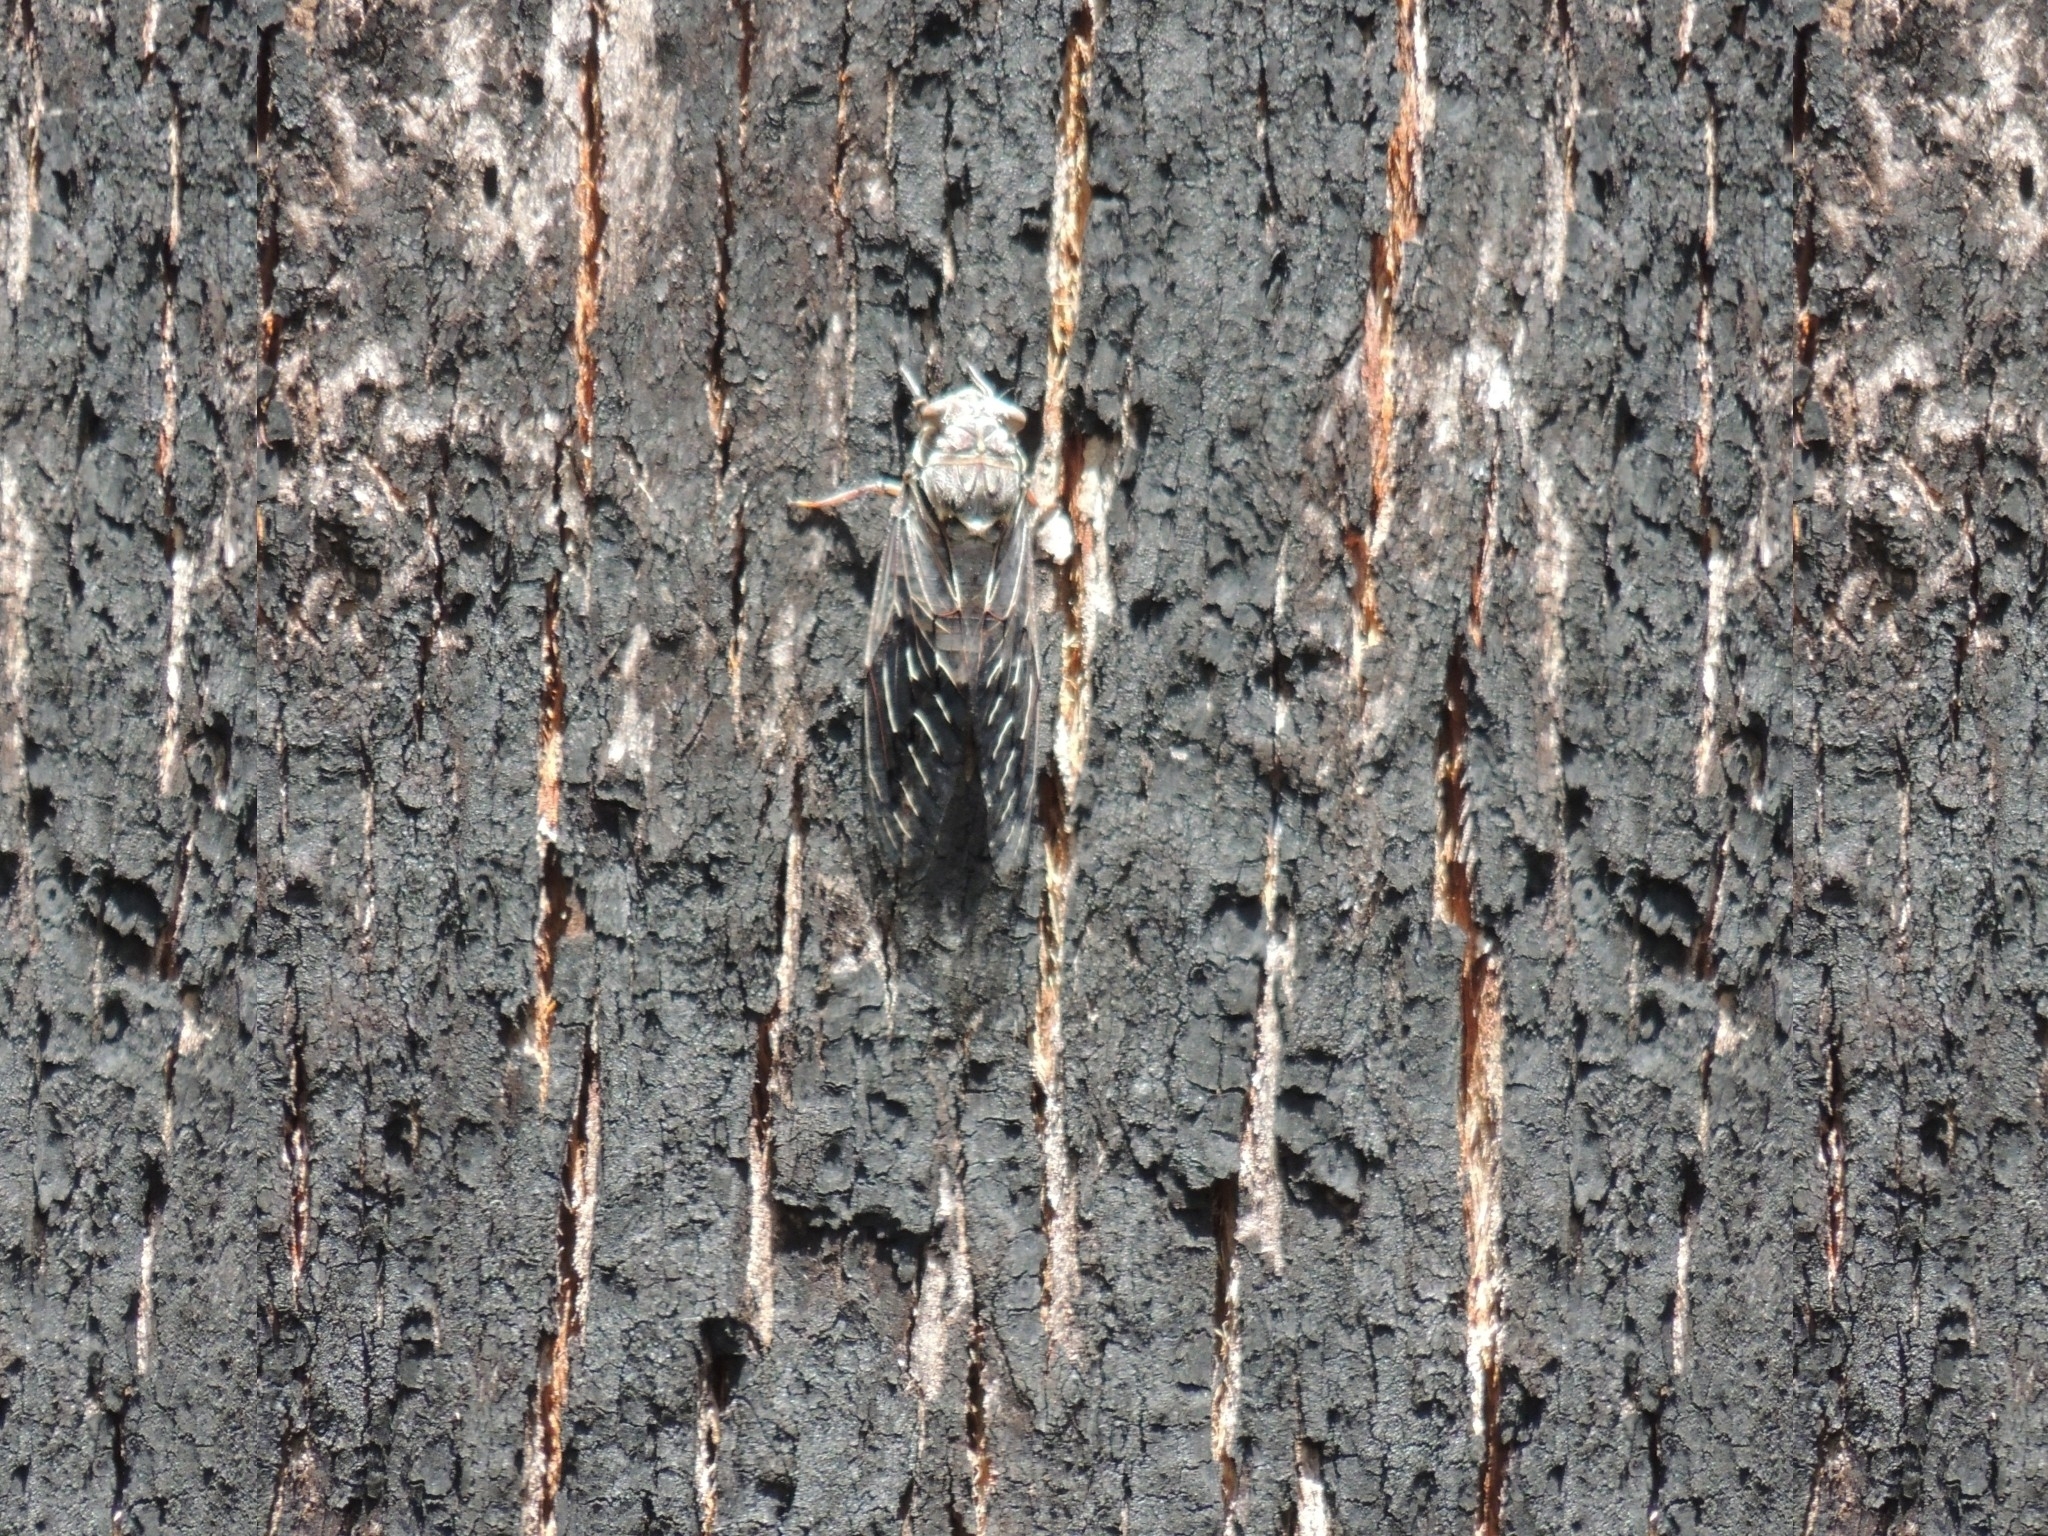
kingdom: Animalia
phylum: Arthropoda
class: Insecta
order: Hemiptera
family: Cicadidae
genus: Henicopsaltria
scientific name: Henicopsaltria eydouxii
